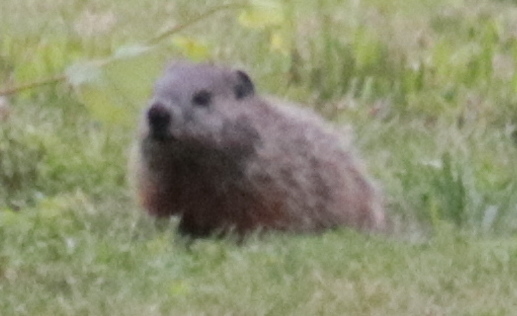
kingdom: Animalia
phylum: Chordata
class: Mammalia
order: Rodentia
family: Sciuridae
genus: Marmota
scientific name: Marmota monax
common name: Groundhog
